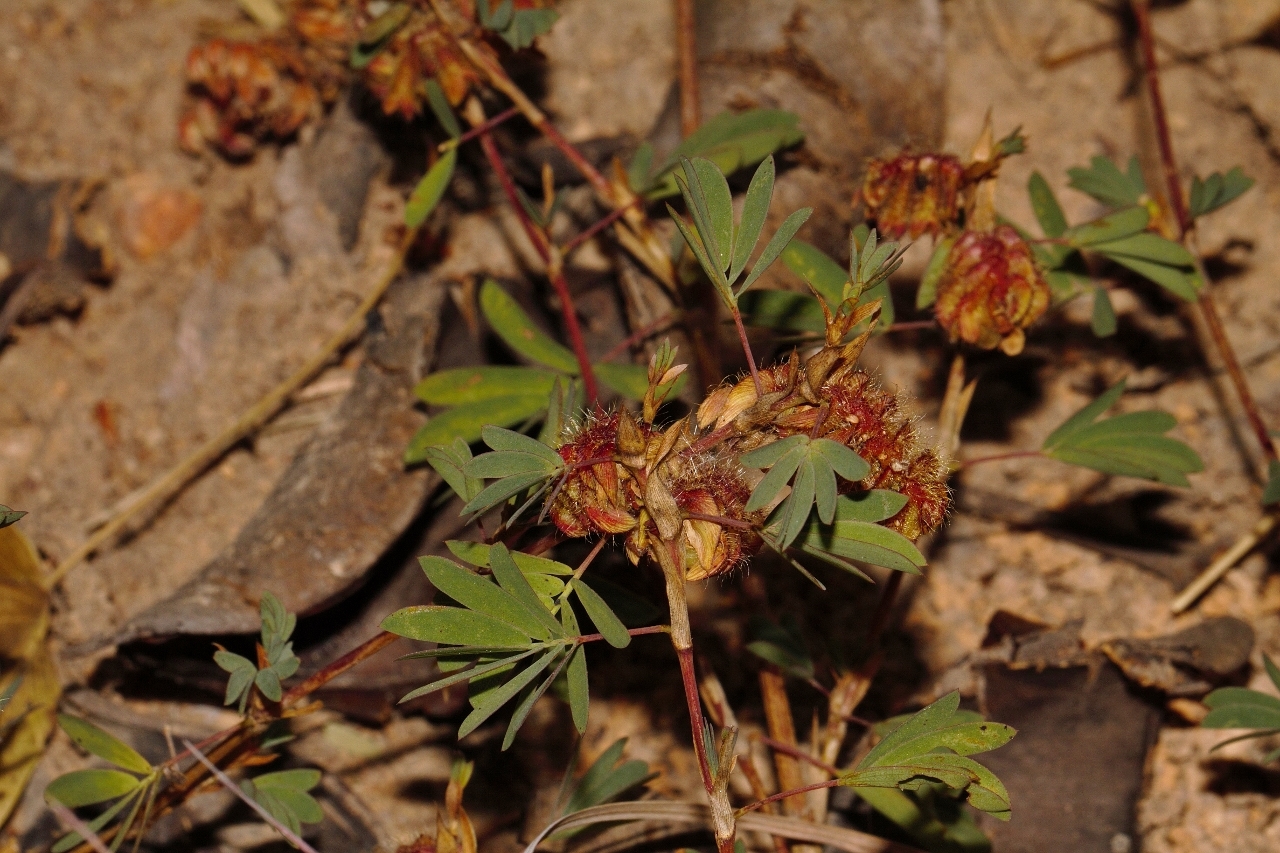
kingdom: Plantae
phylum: Tracheophyta
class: Magnoliopsida
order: Fabales
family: Fabaceae
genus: Kotschya
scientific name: Kotschya strobilantha
